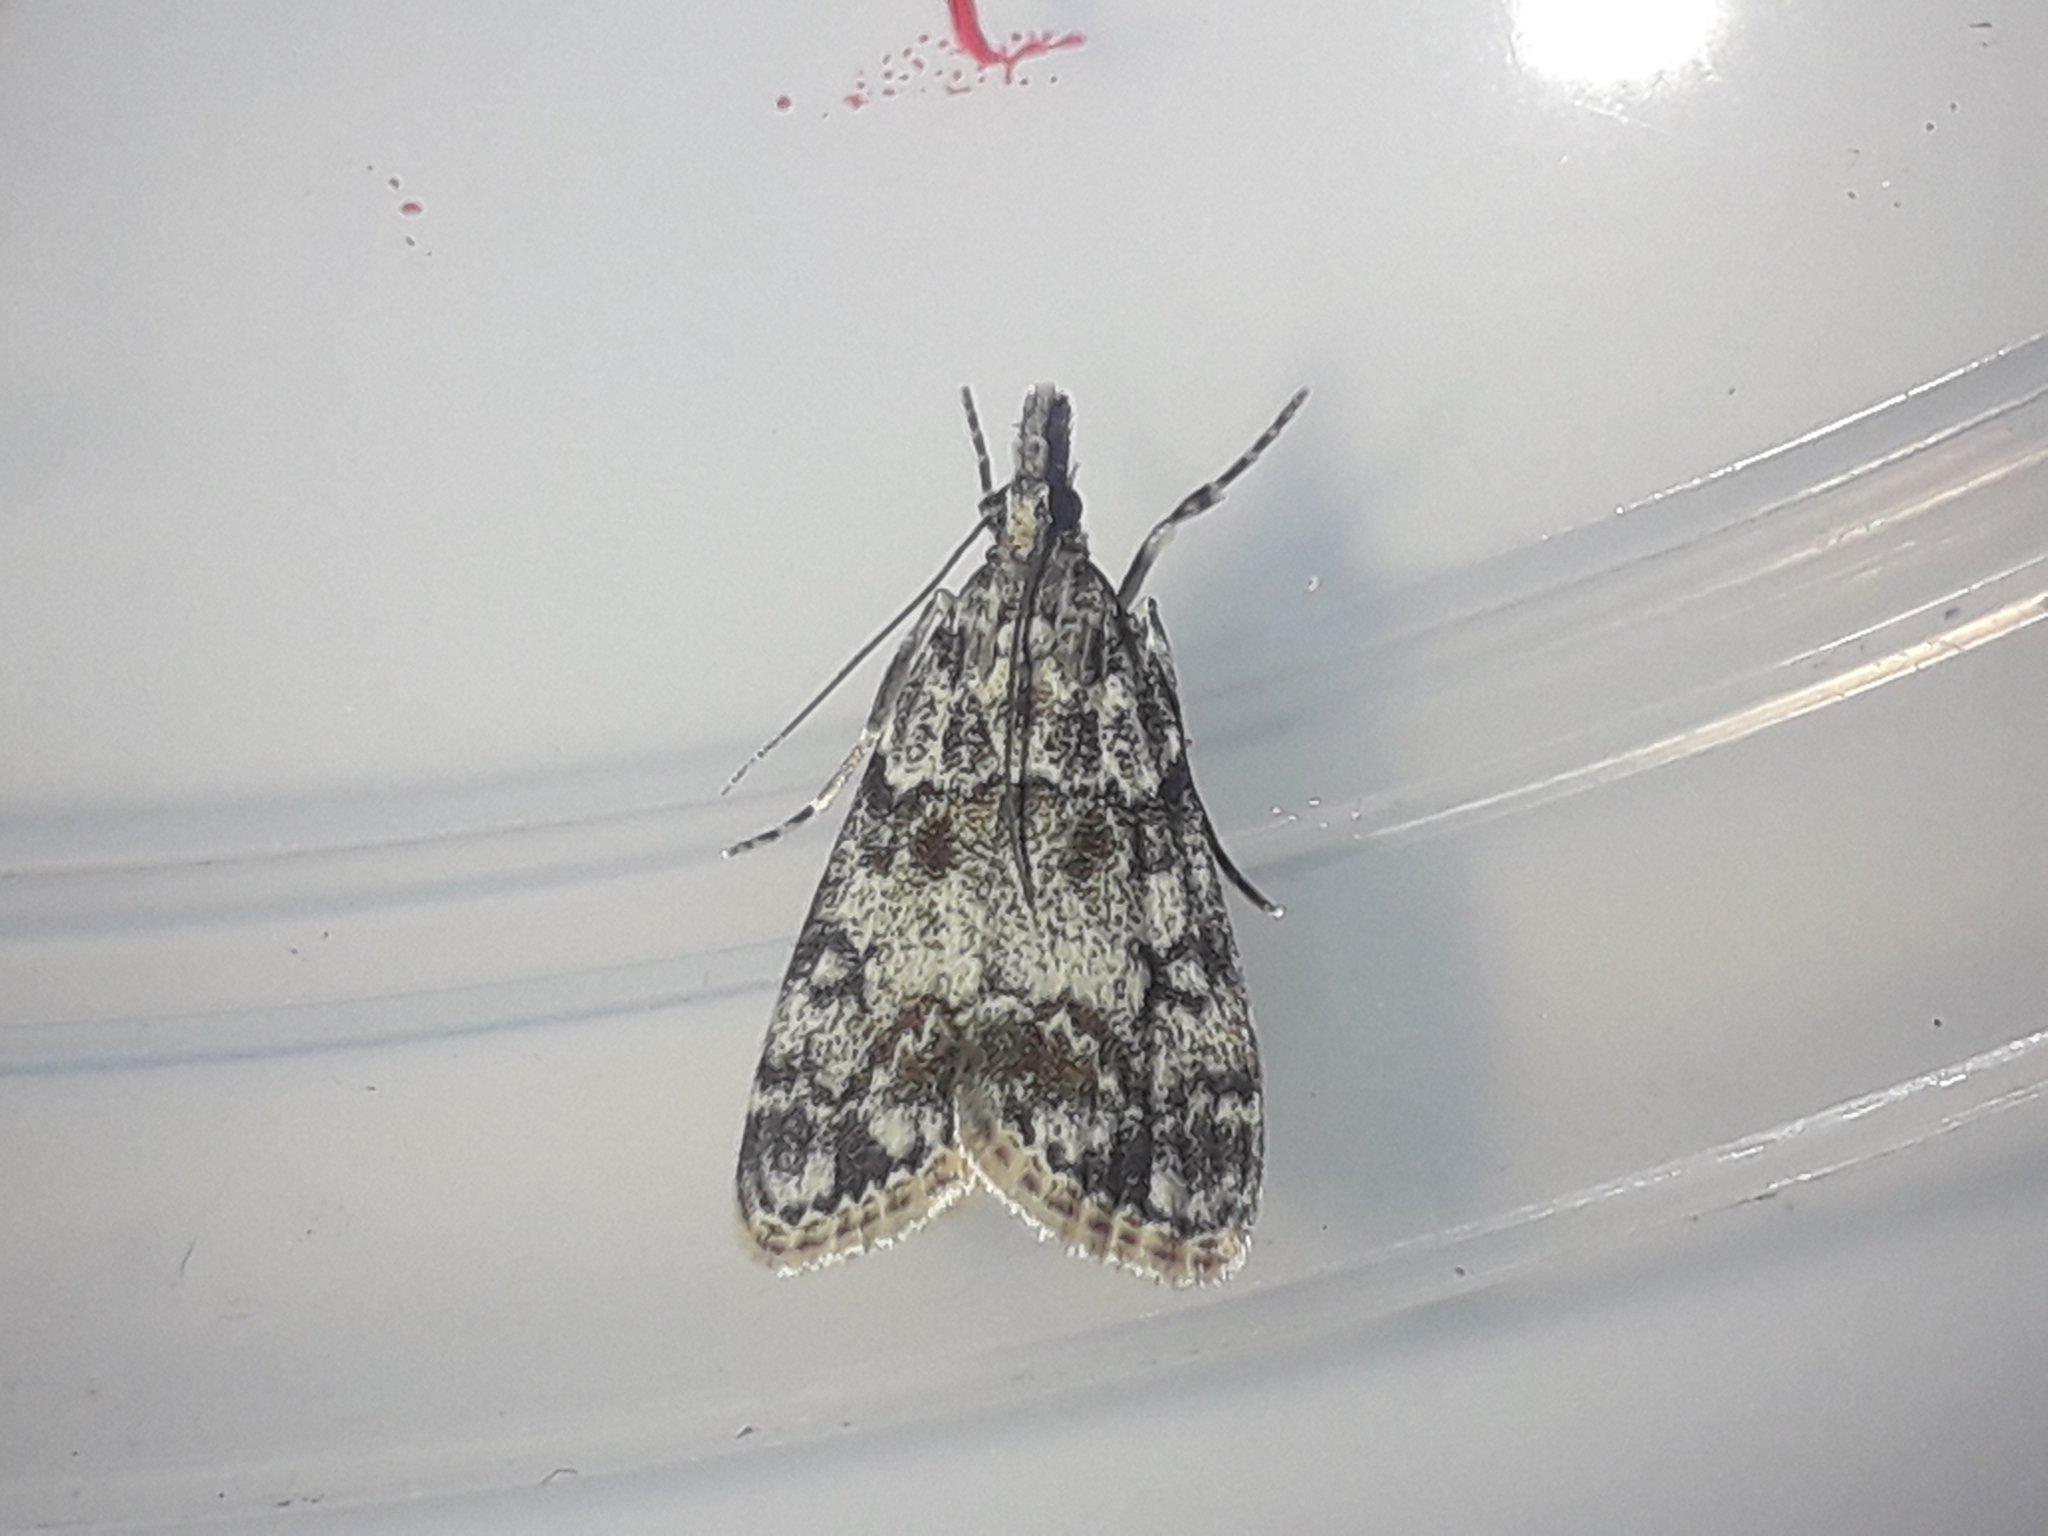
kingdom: Animalia
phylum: Arthropoda
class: Insecta
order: Lepidoptera
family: Crambidae
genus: Eudonia
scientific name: Eudonia lacustrata
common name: Little grey
